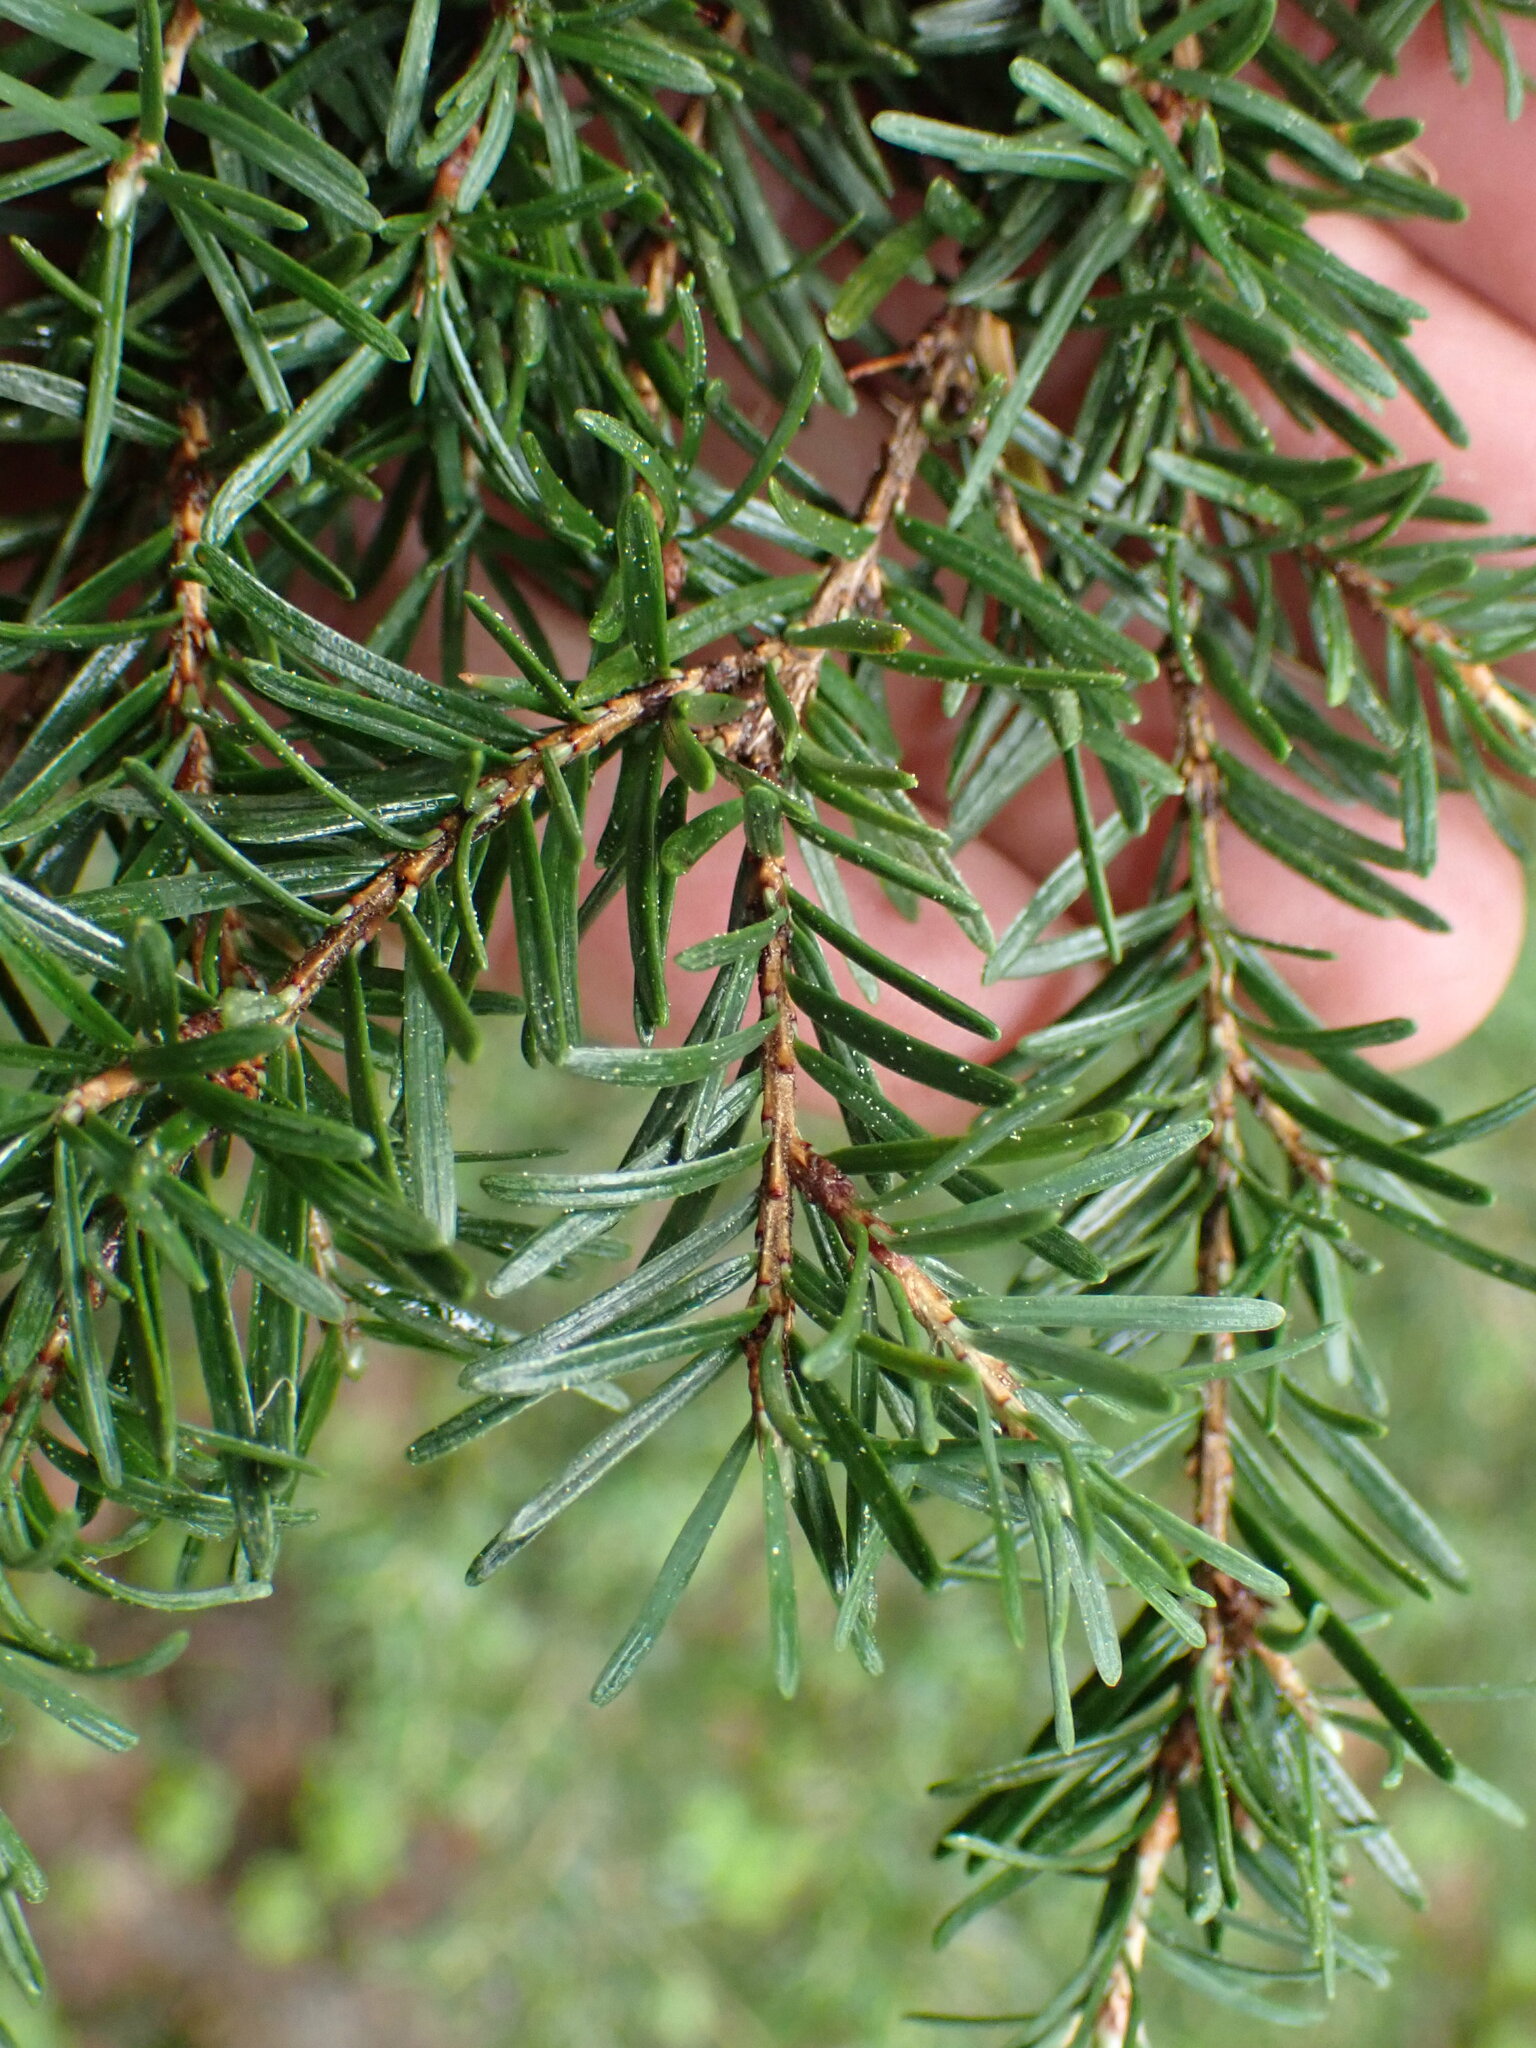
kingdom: Plantae
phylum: Tracheophyta
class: Pinopsida
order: Pinales
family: Pinaceae
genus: Tsuga
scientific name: Tsuga mertensiana
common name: Mountain hemlock
